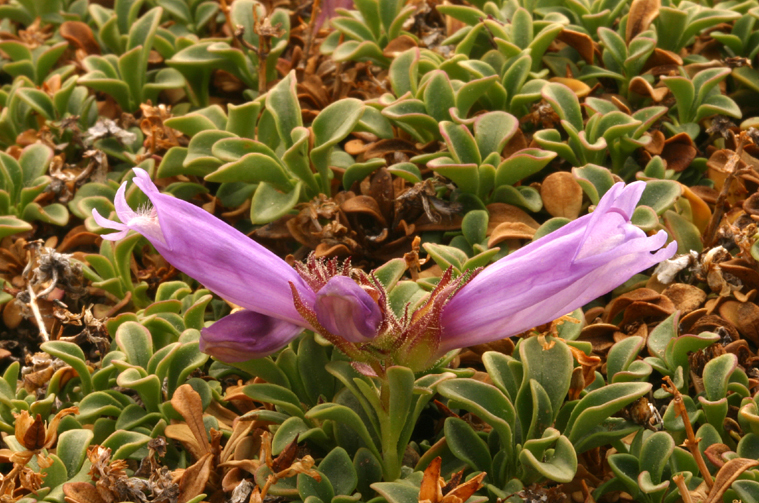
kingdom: Plantae
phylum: Tracheophyta
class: Magnoliopsida
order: Lamiales
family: Plantaginaceae
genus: Penstemon
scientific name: Penstemon davidsonii
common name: Davidson's penstemon
